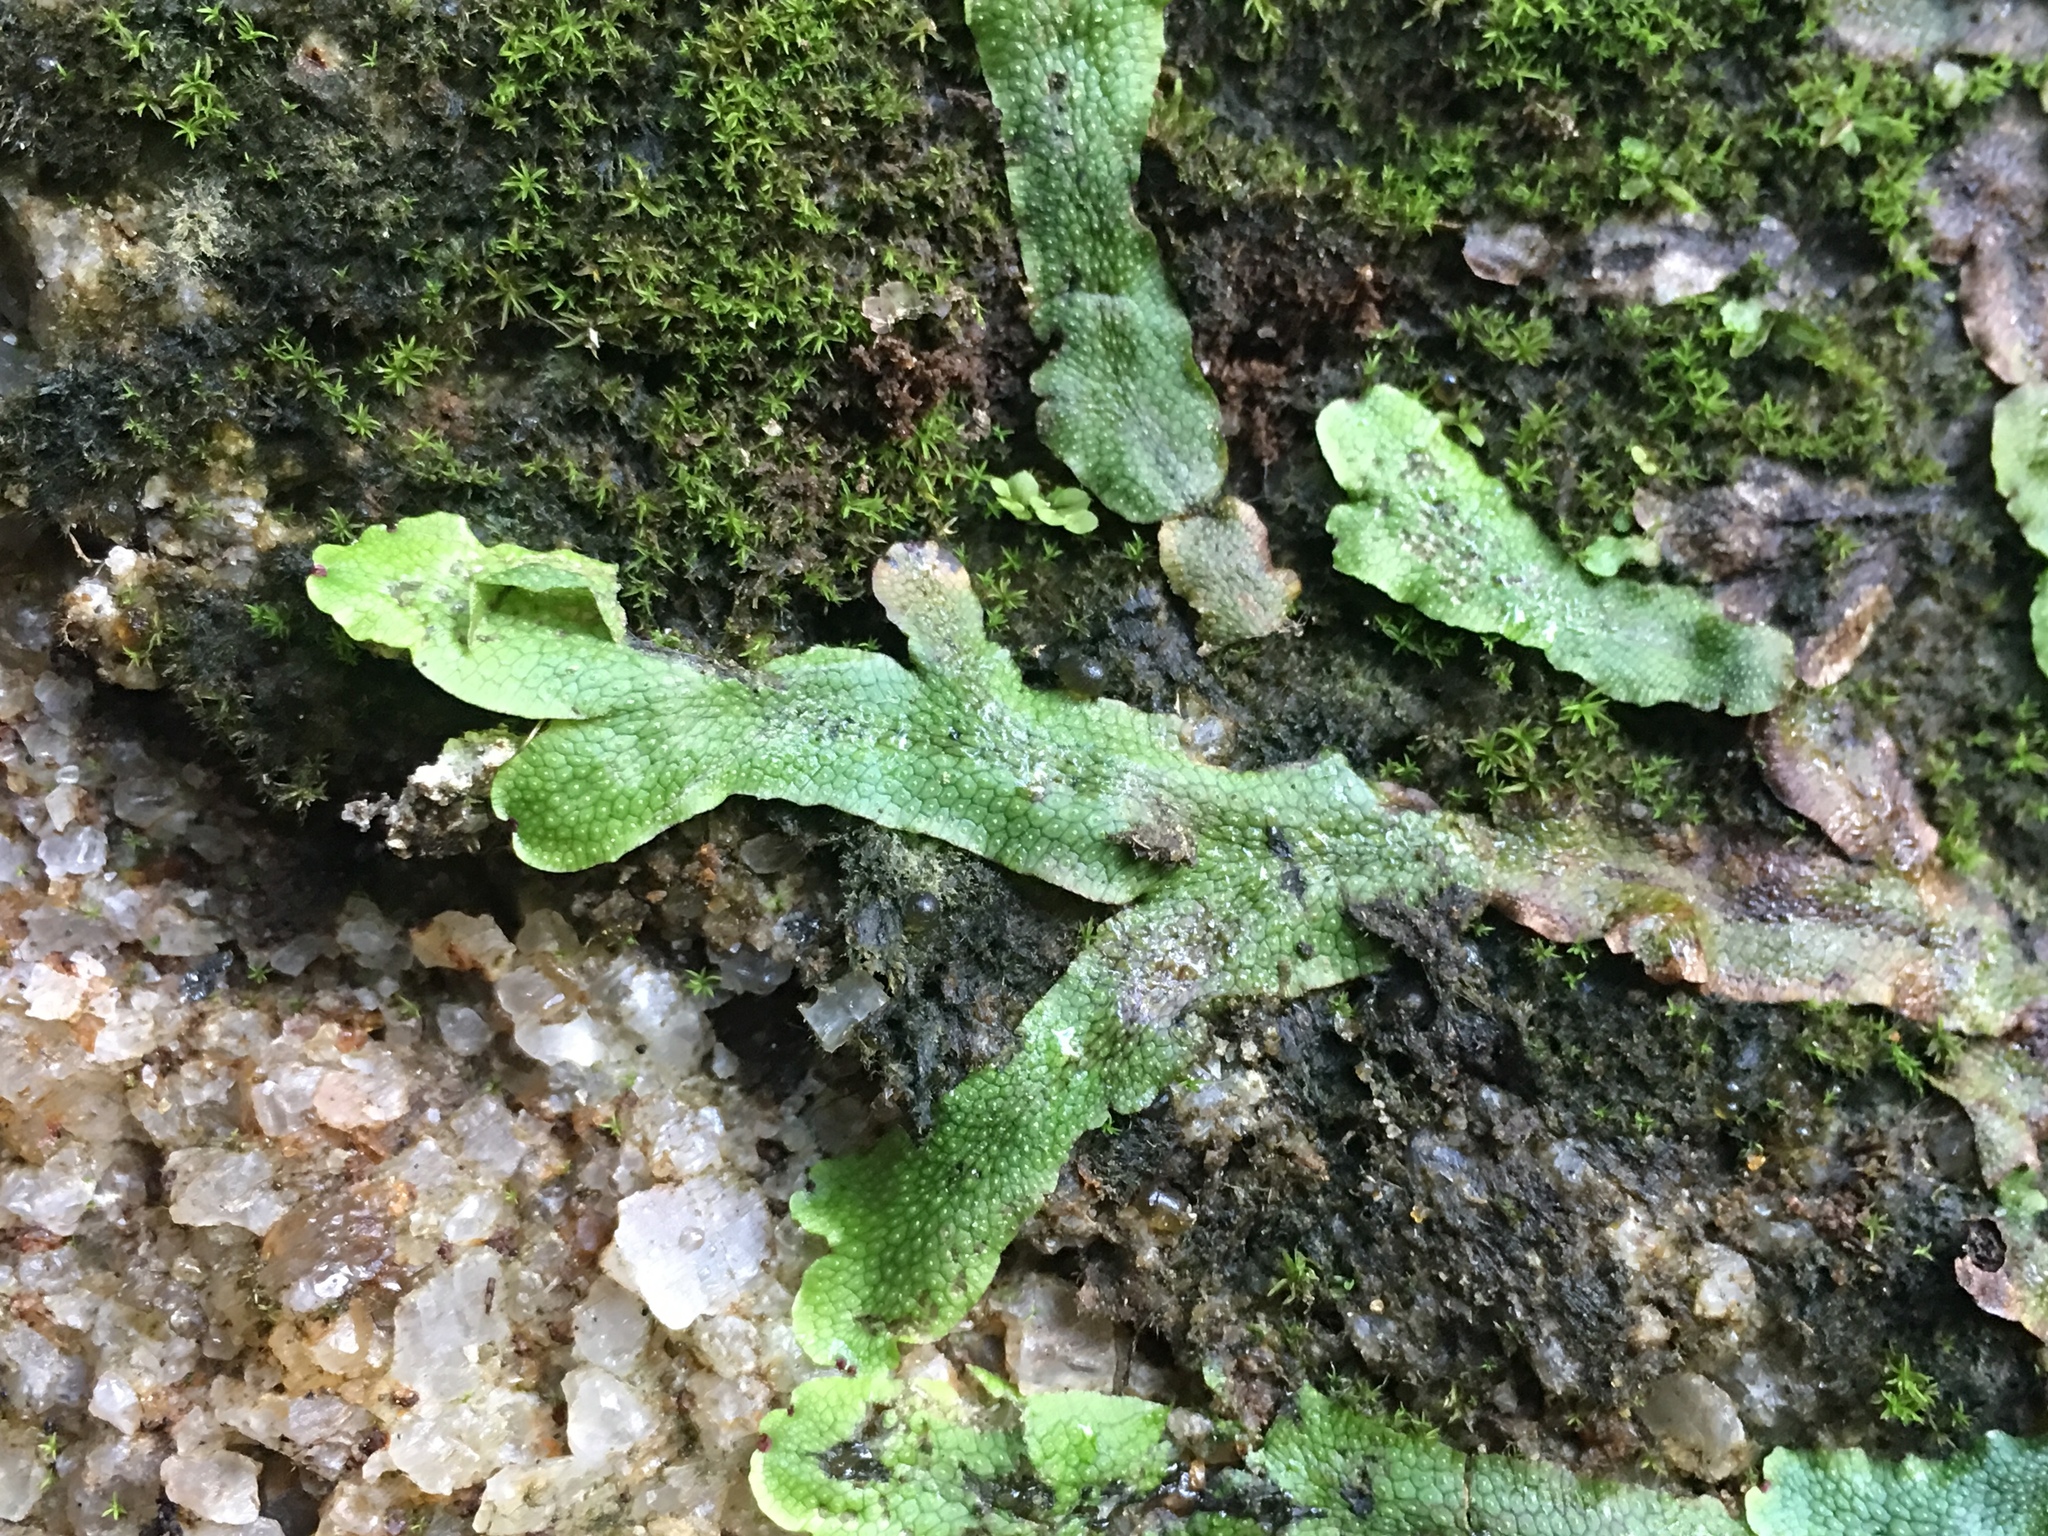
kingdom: Plantae
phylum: Marchantiophyta
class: Marchantiopsida
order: Marchantiales
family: Conocephalaceae
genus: Conocephalum
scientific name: Conocephalum salebrosum
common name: Cat-tongue liverwort
